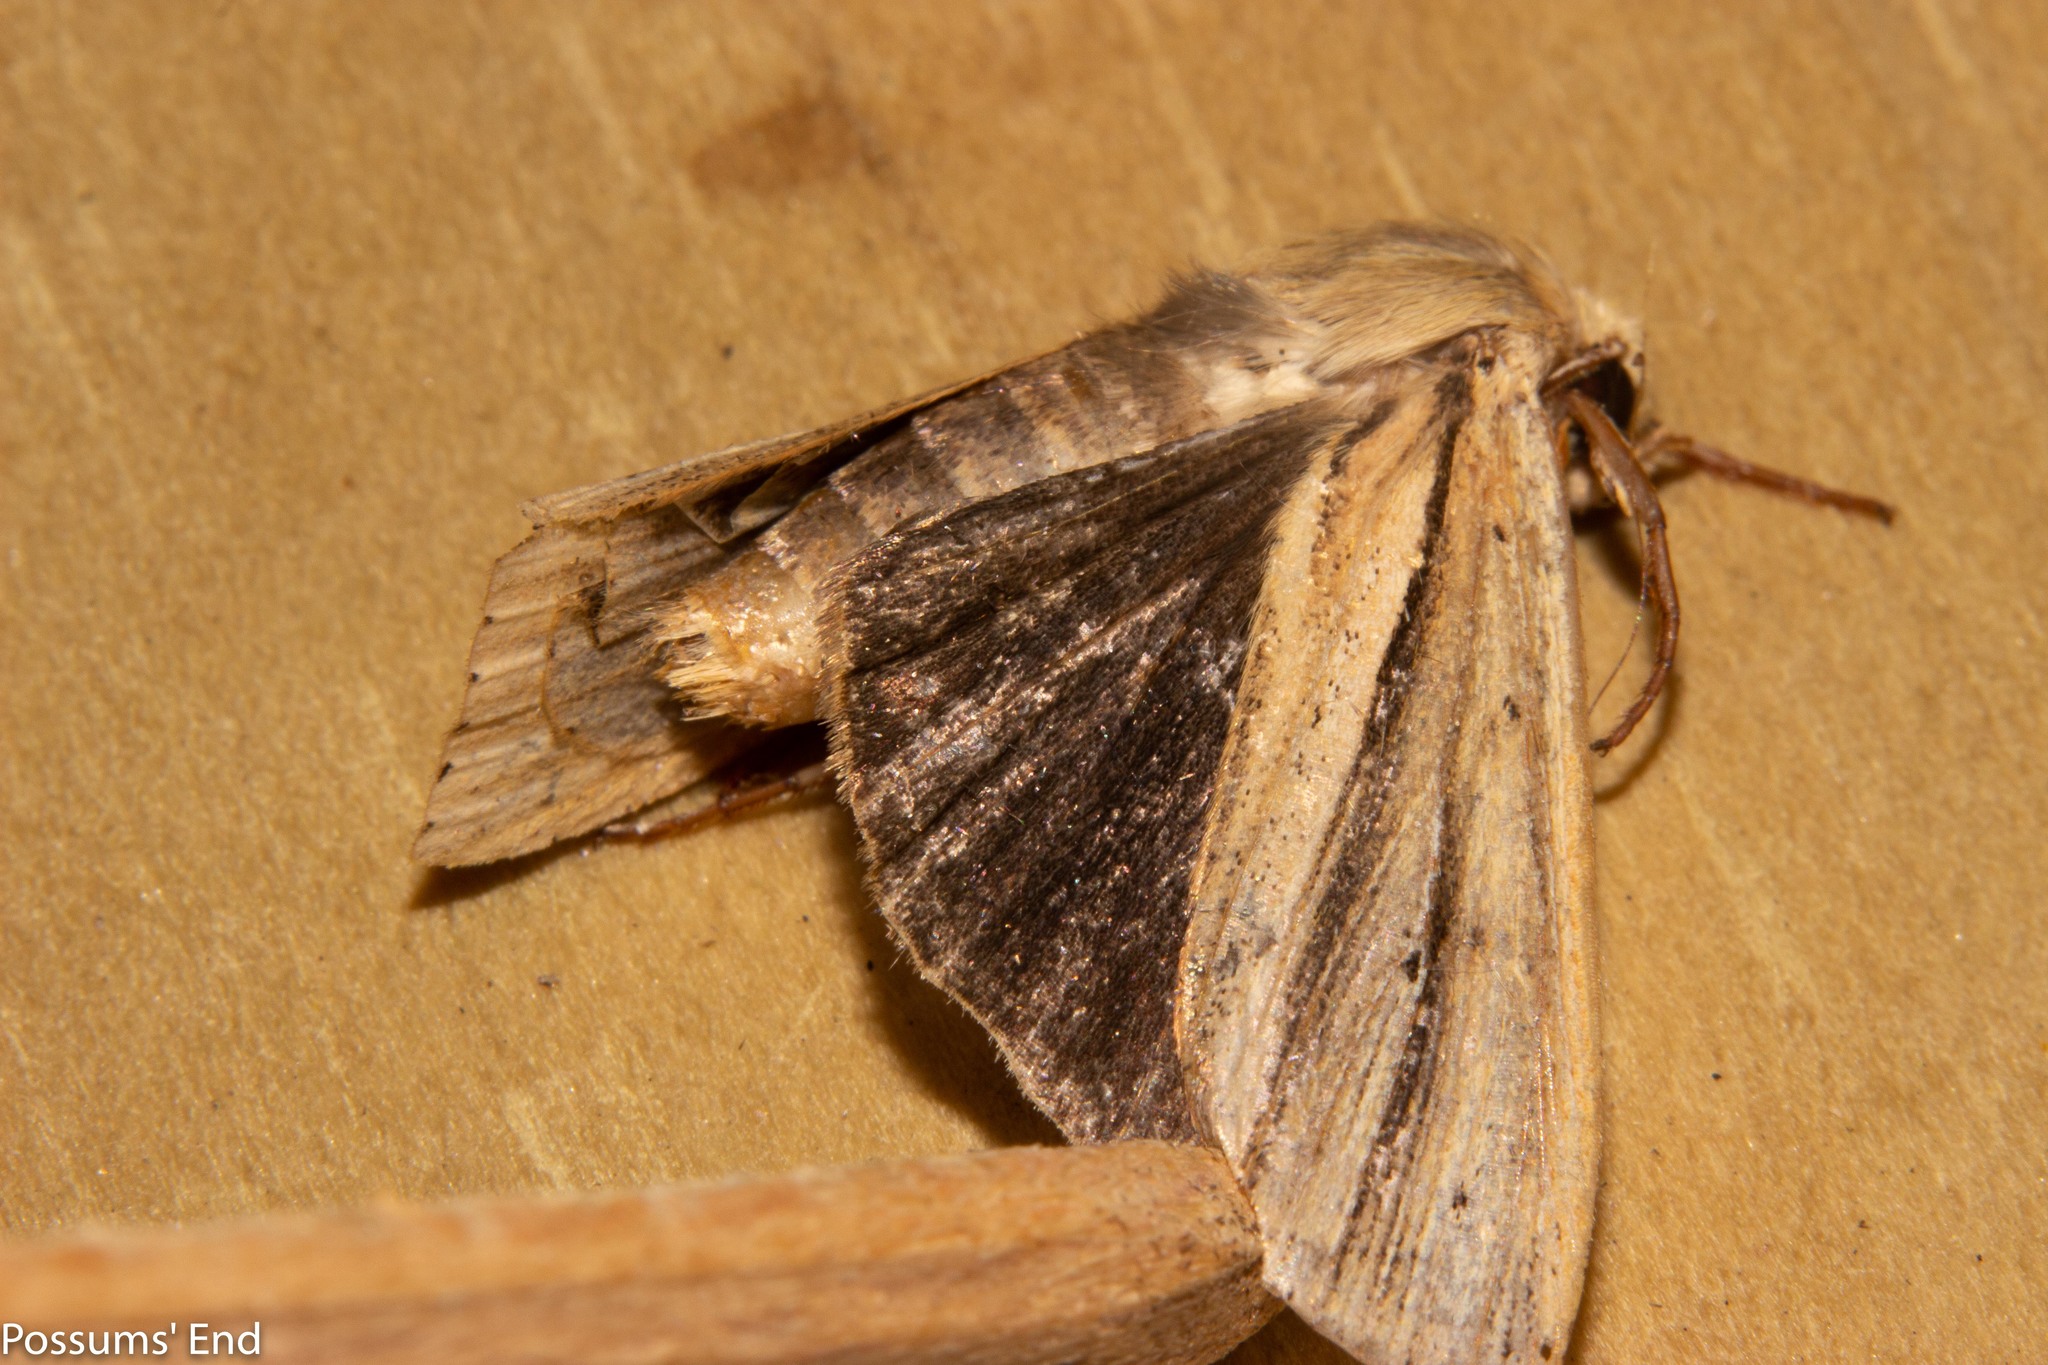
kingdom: Animalia
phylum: Arthropoda
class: Insecta
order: Lepidoptera
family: Noctuidae
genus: Ichneutica
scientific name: Ichneutica sulcana
